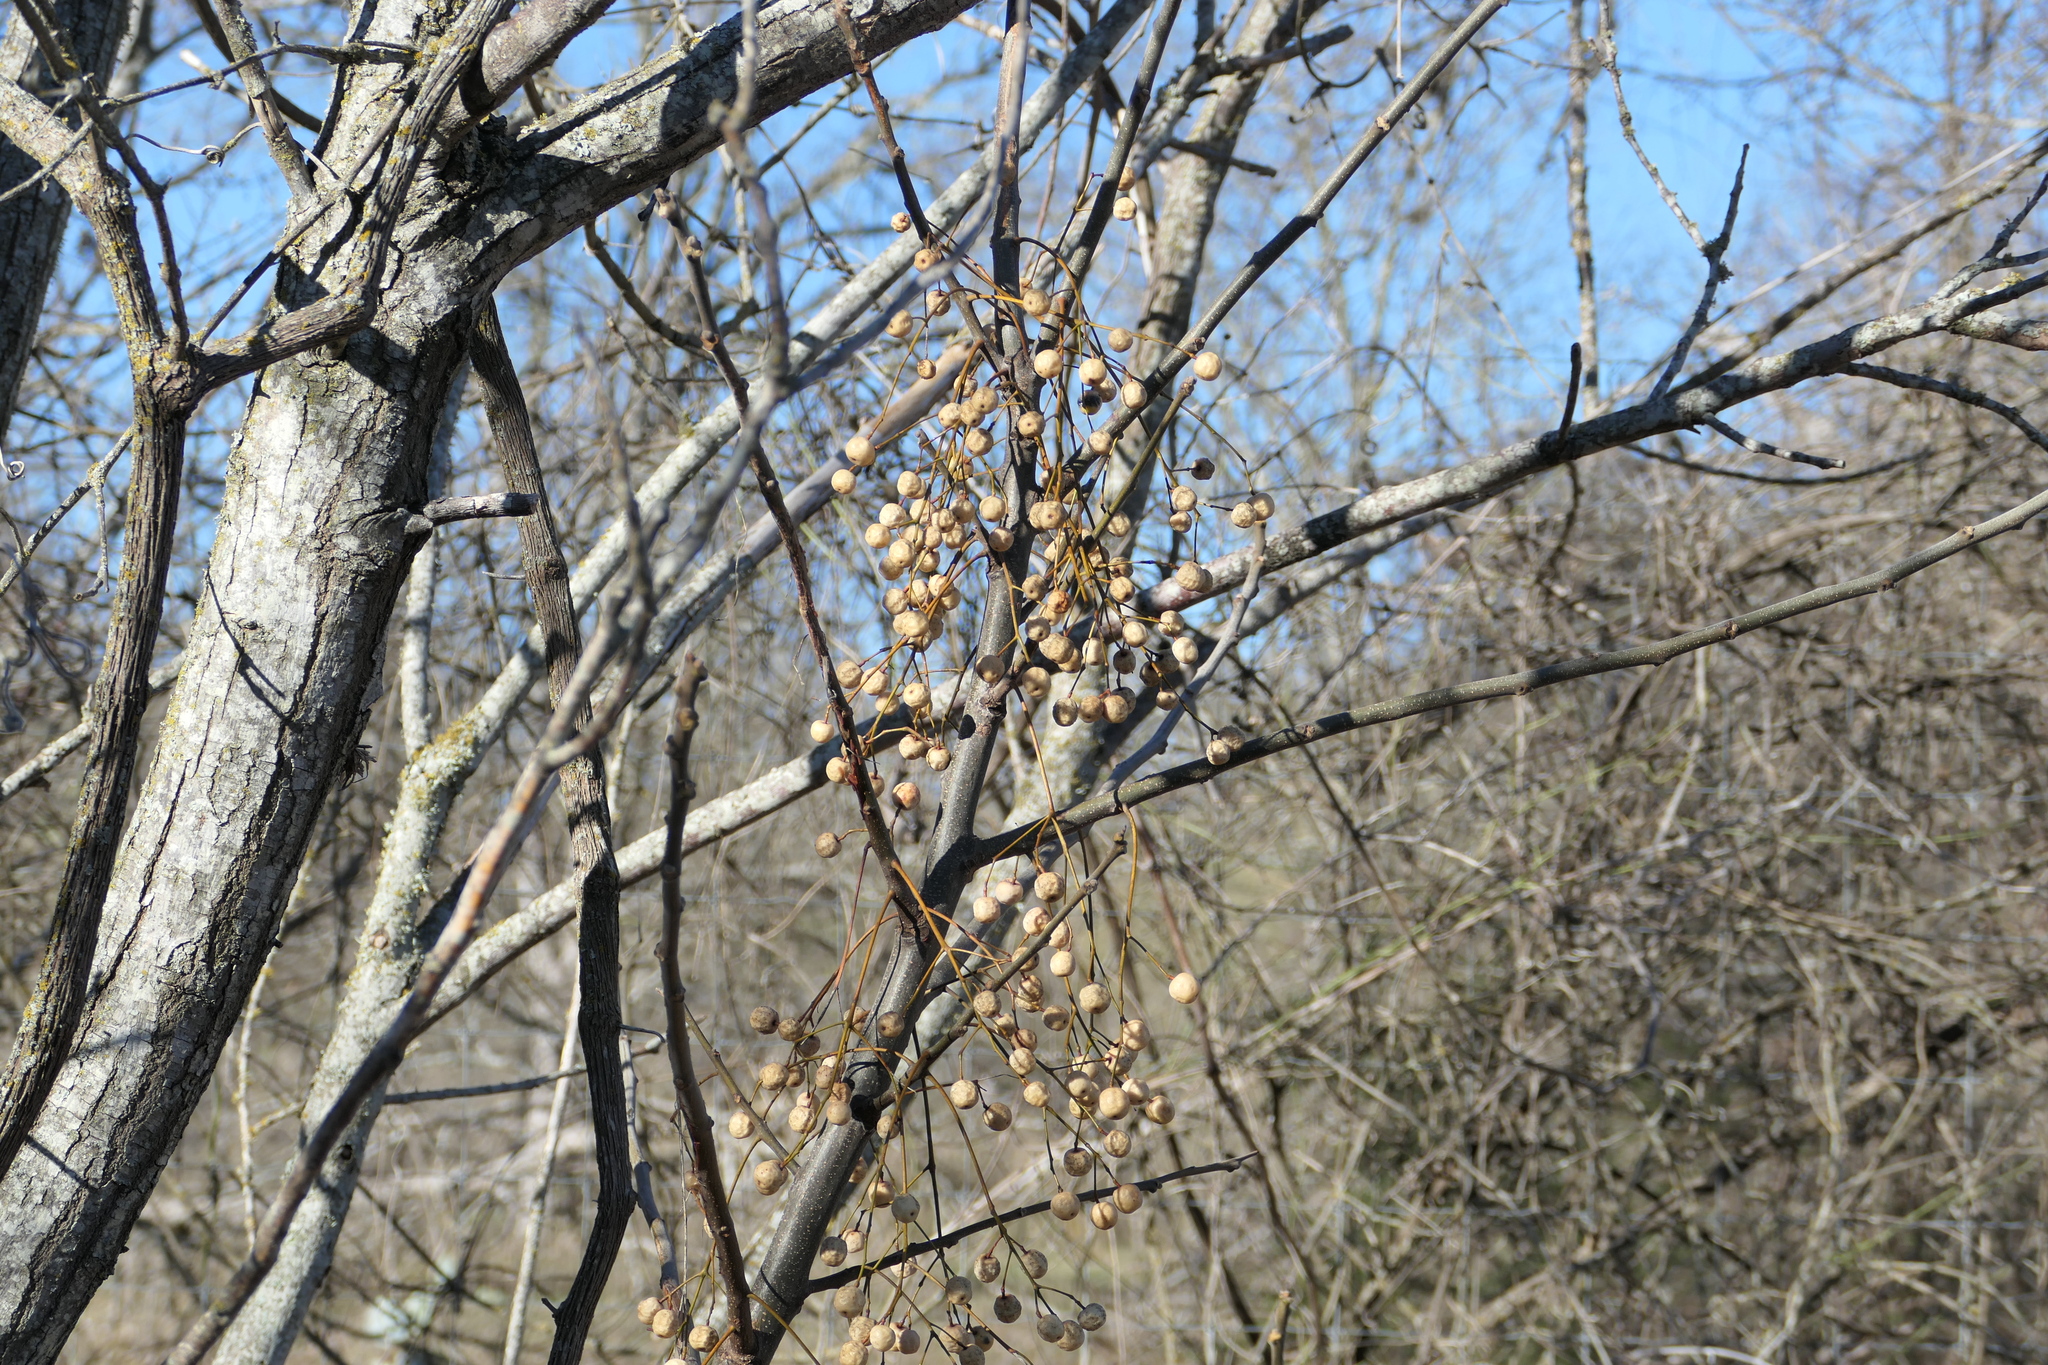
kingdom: Plantae
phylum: Tracheophyta
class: Magnoliopsida
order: Sapindales
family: Meliaceae
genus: Melia
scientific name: Melia azedarach
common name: Chinaberrytree
